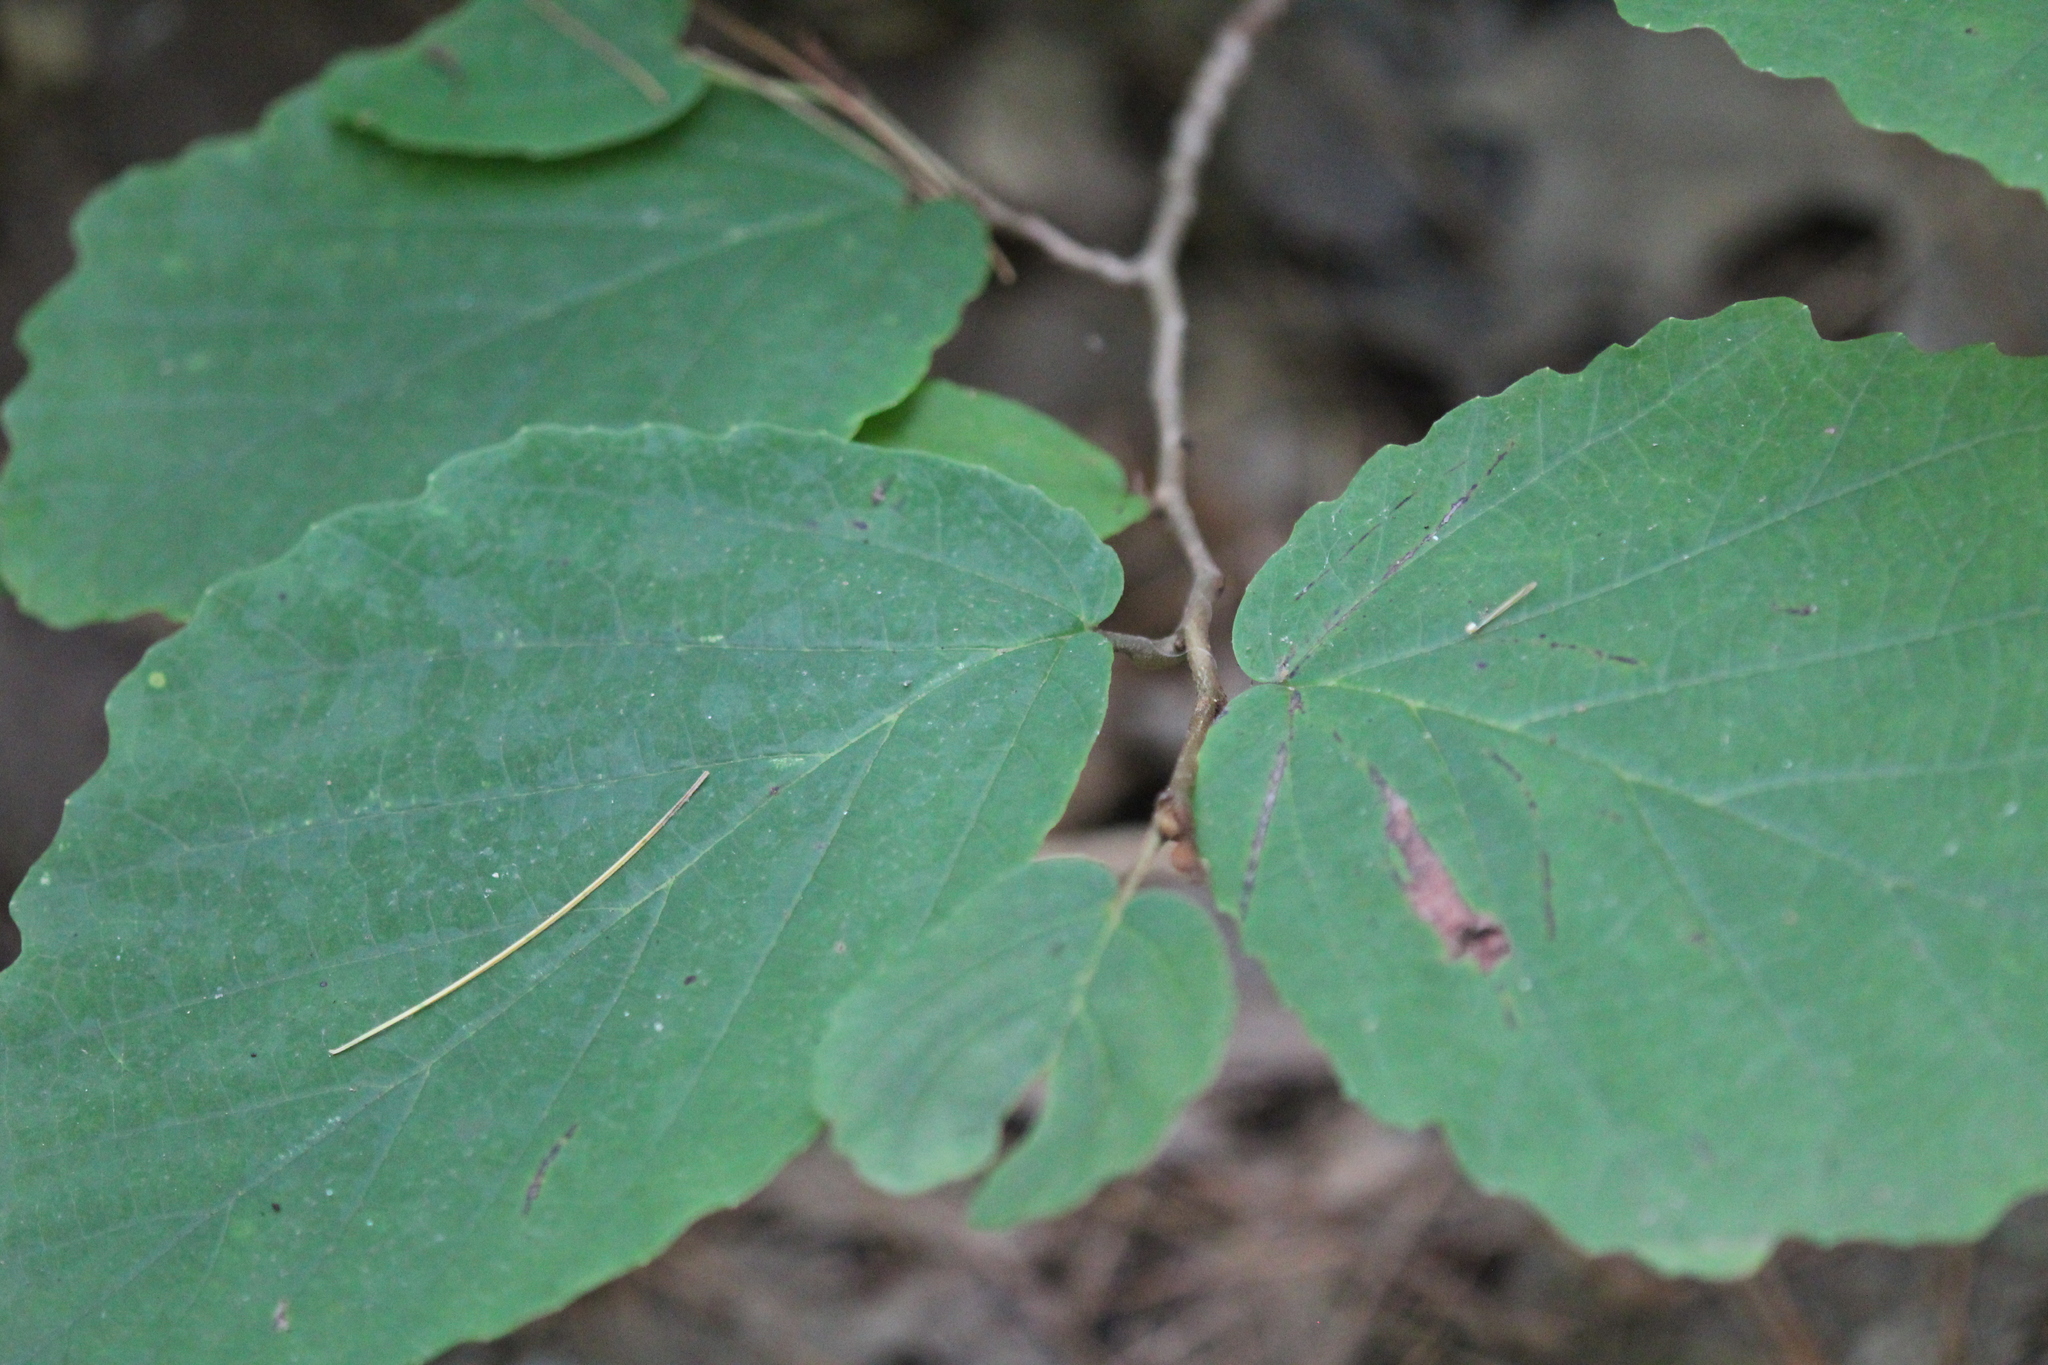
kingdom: Plantae
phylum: Tracheophyta
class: Magnoliopsida
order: Saxifragales
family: Hamamelidaceae
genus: Hamamelis
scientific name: Hamamelis virginiana
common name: Witch-hazel
